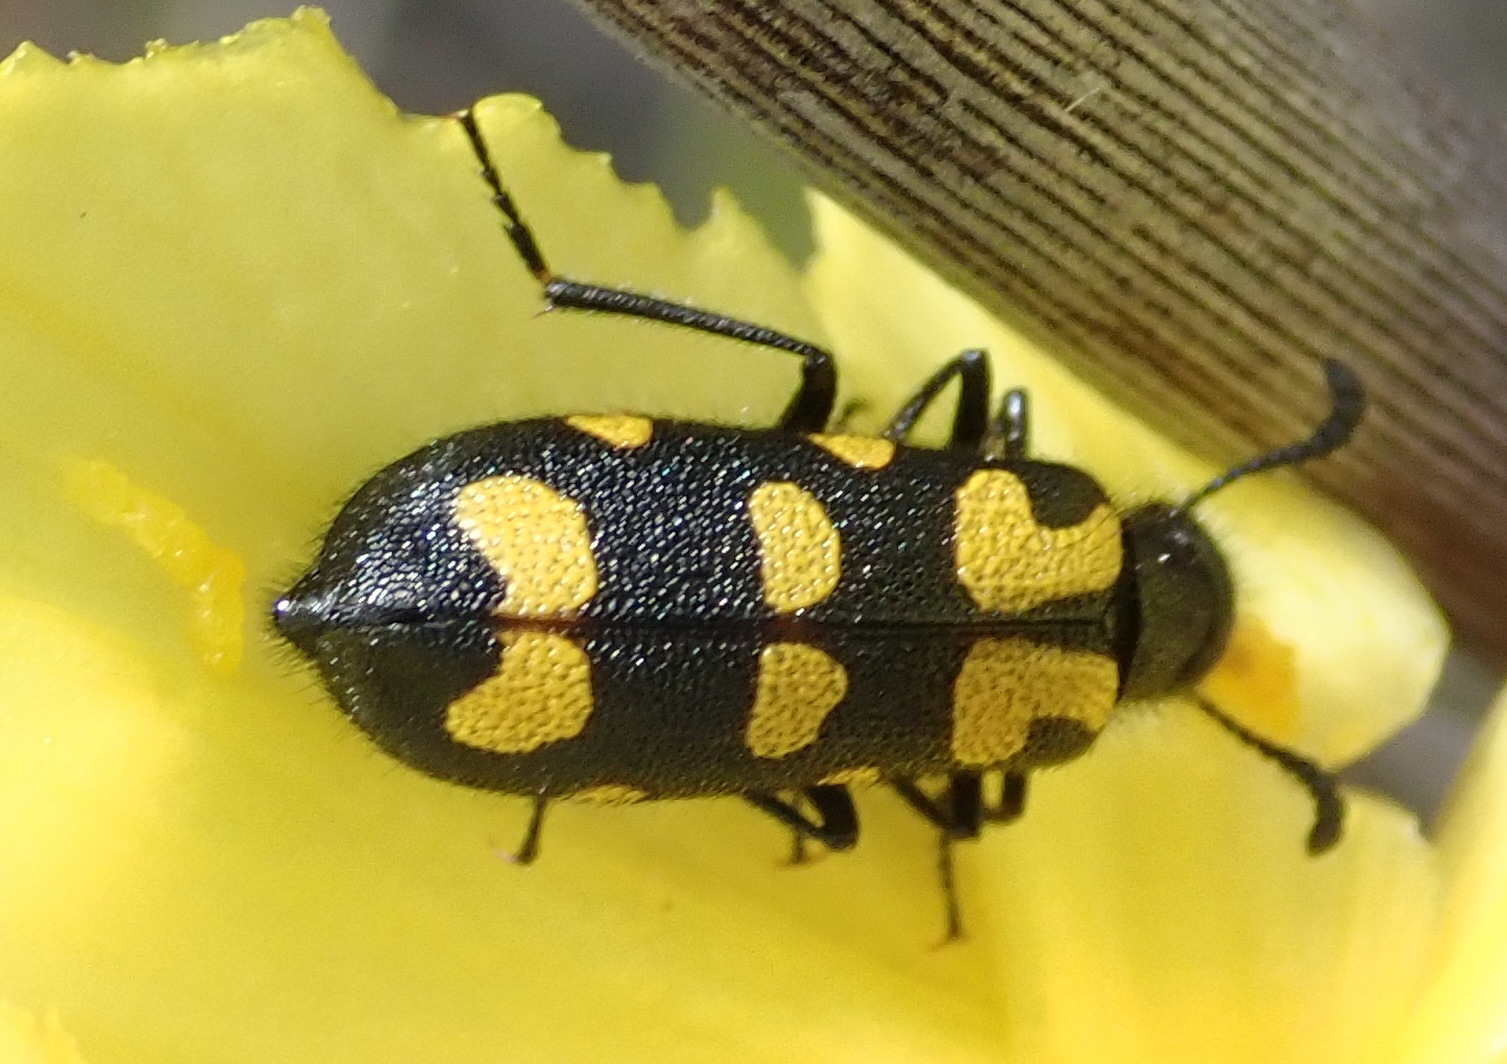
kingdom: Animalia
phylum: Arthropoda
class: Insecta
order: Coleoptera
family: Meloidae
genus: Ceroctis
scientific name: Ceroctis capensis
